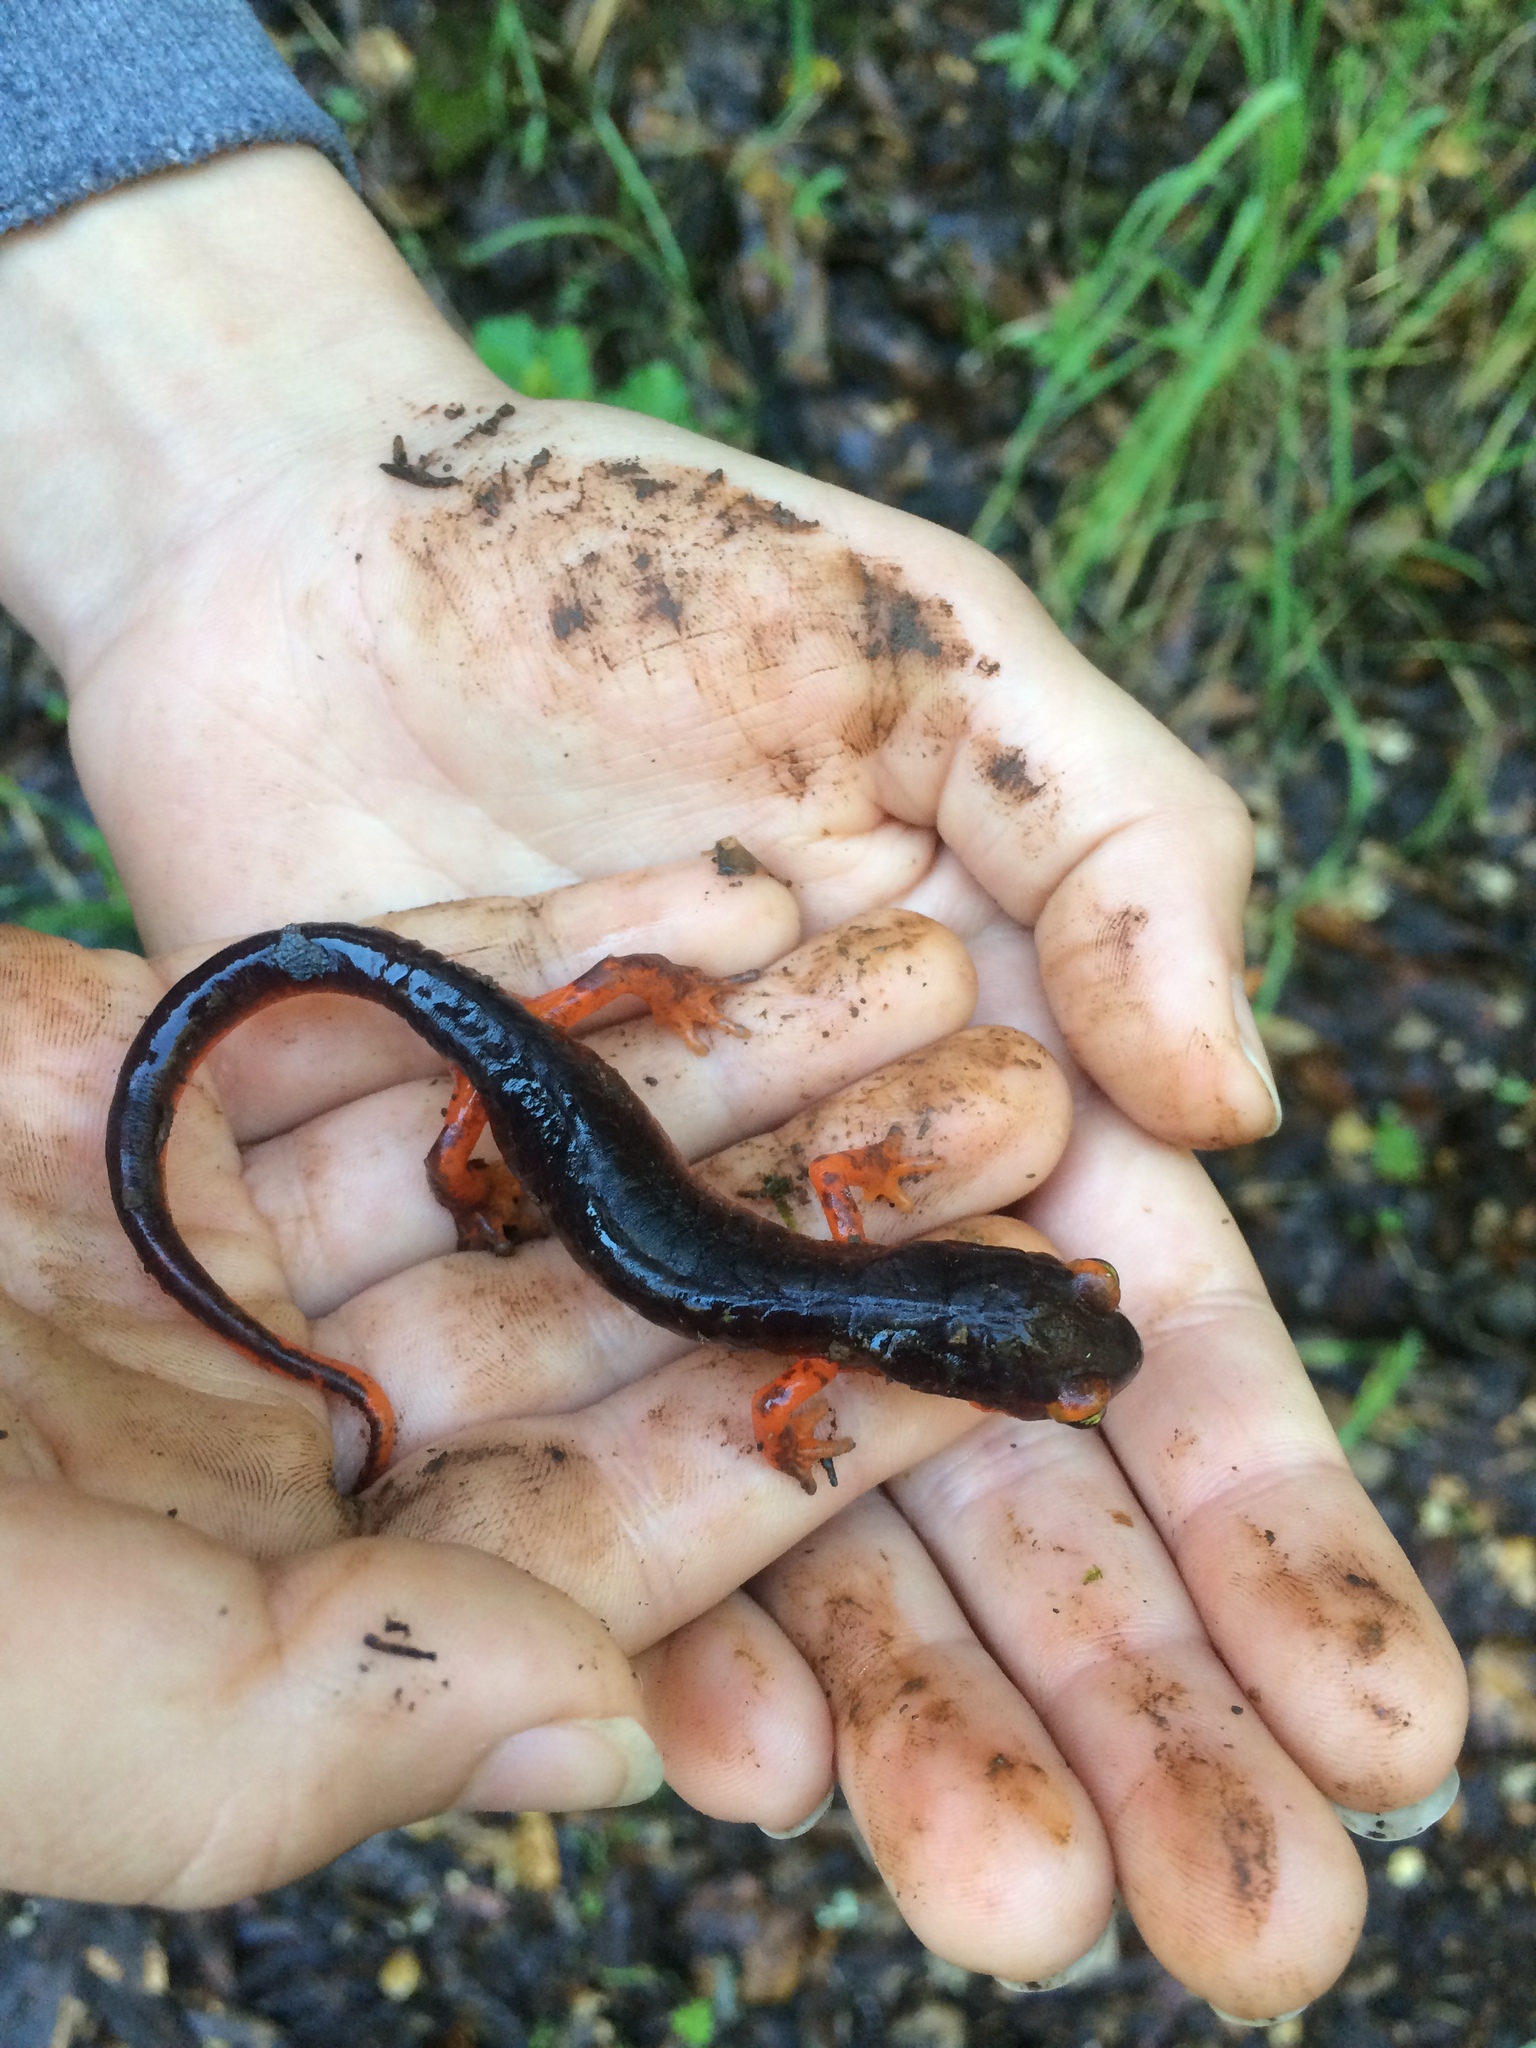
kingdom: Animalia
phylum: Chordata
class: Amphibia
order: Caudata
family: Plethodontidae
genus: Ensatina
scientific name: Ensatina eschscholtzii
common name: Ensatina
